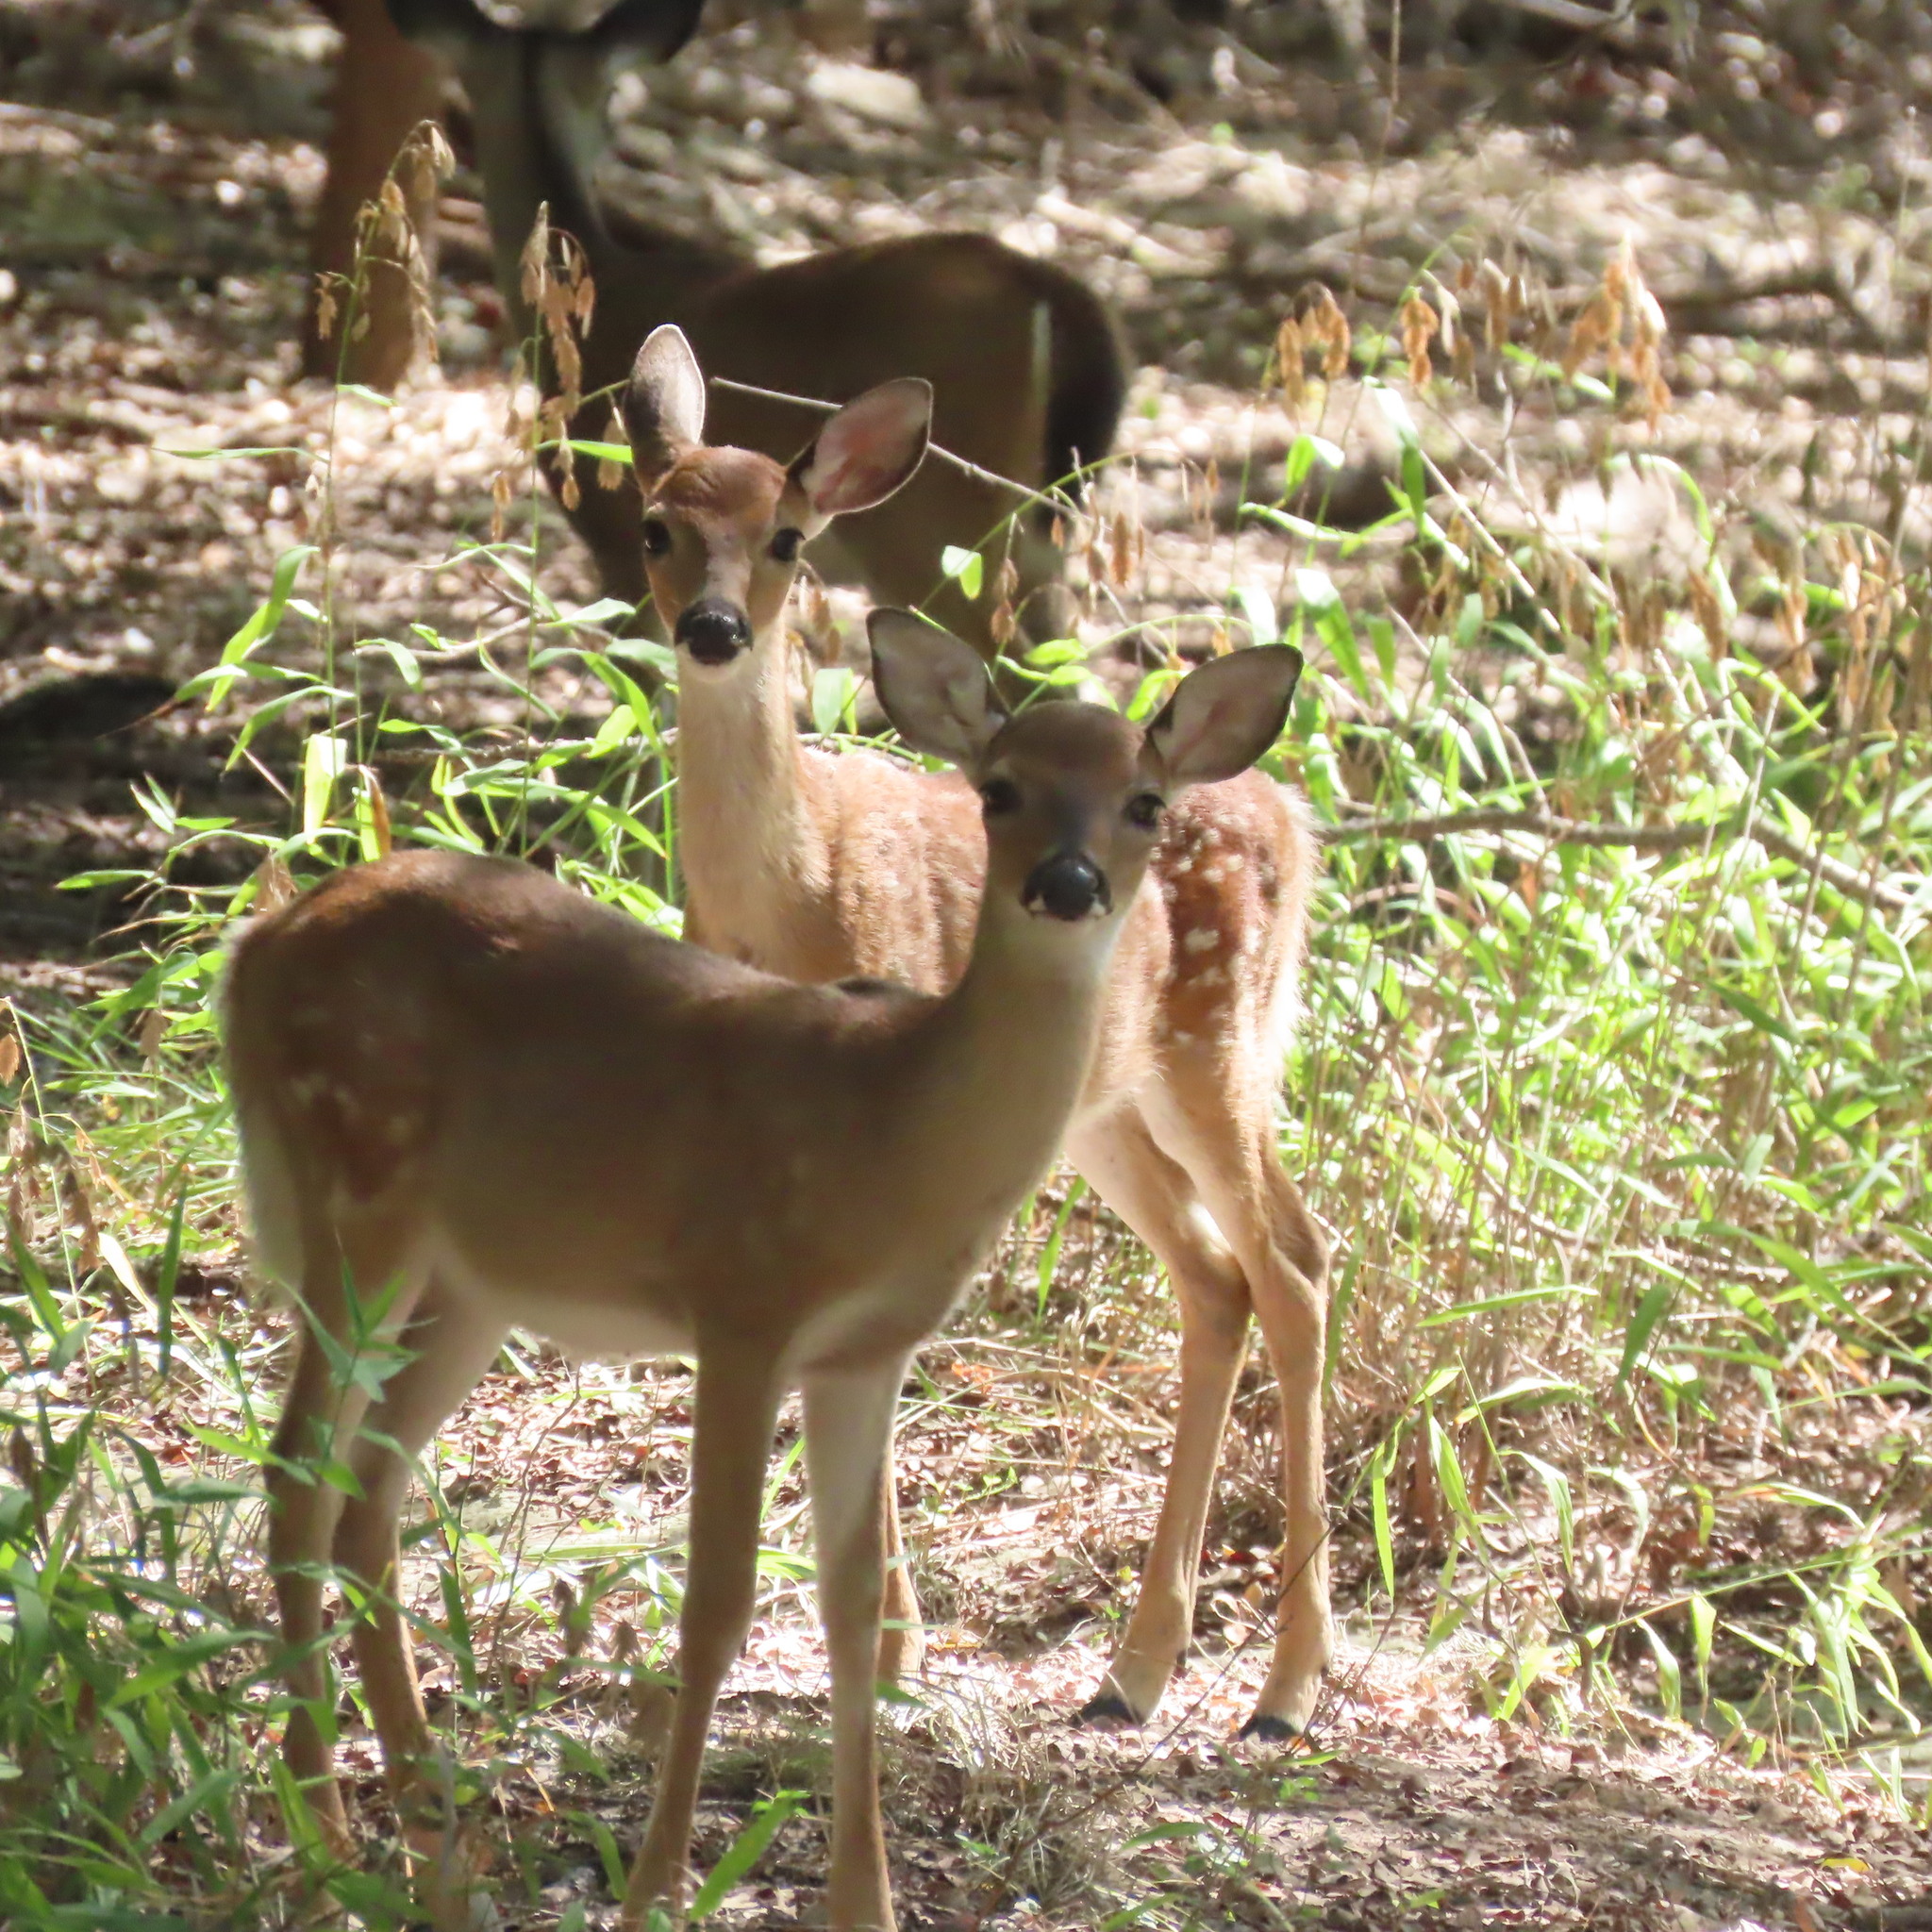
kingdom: Animalia
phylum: Chordata
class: Mammalia
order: Artiodactyla
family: Cervidae
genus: Odocoileus
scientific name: Odocoileus virginianus
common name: White-tailed deer
